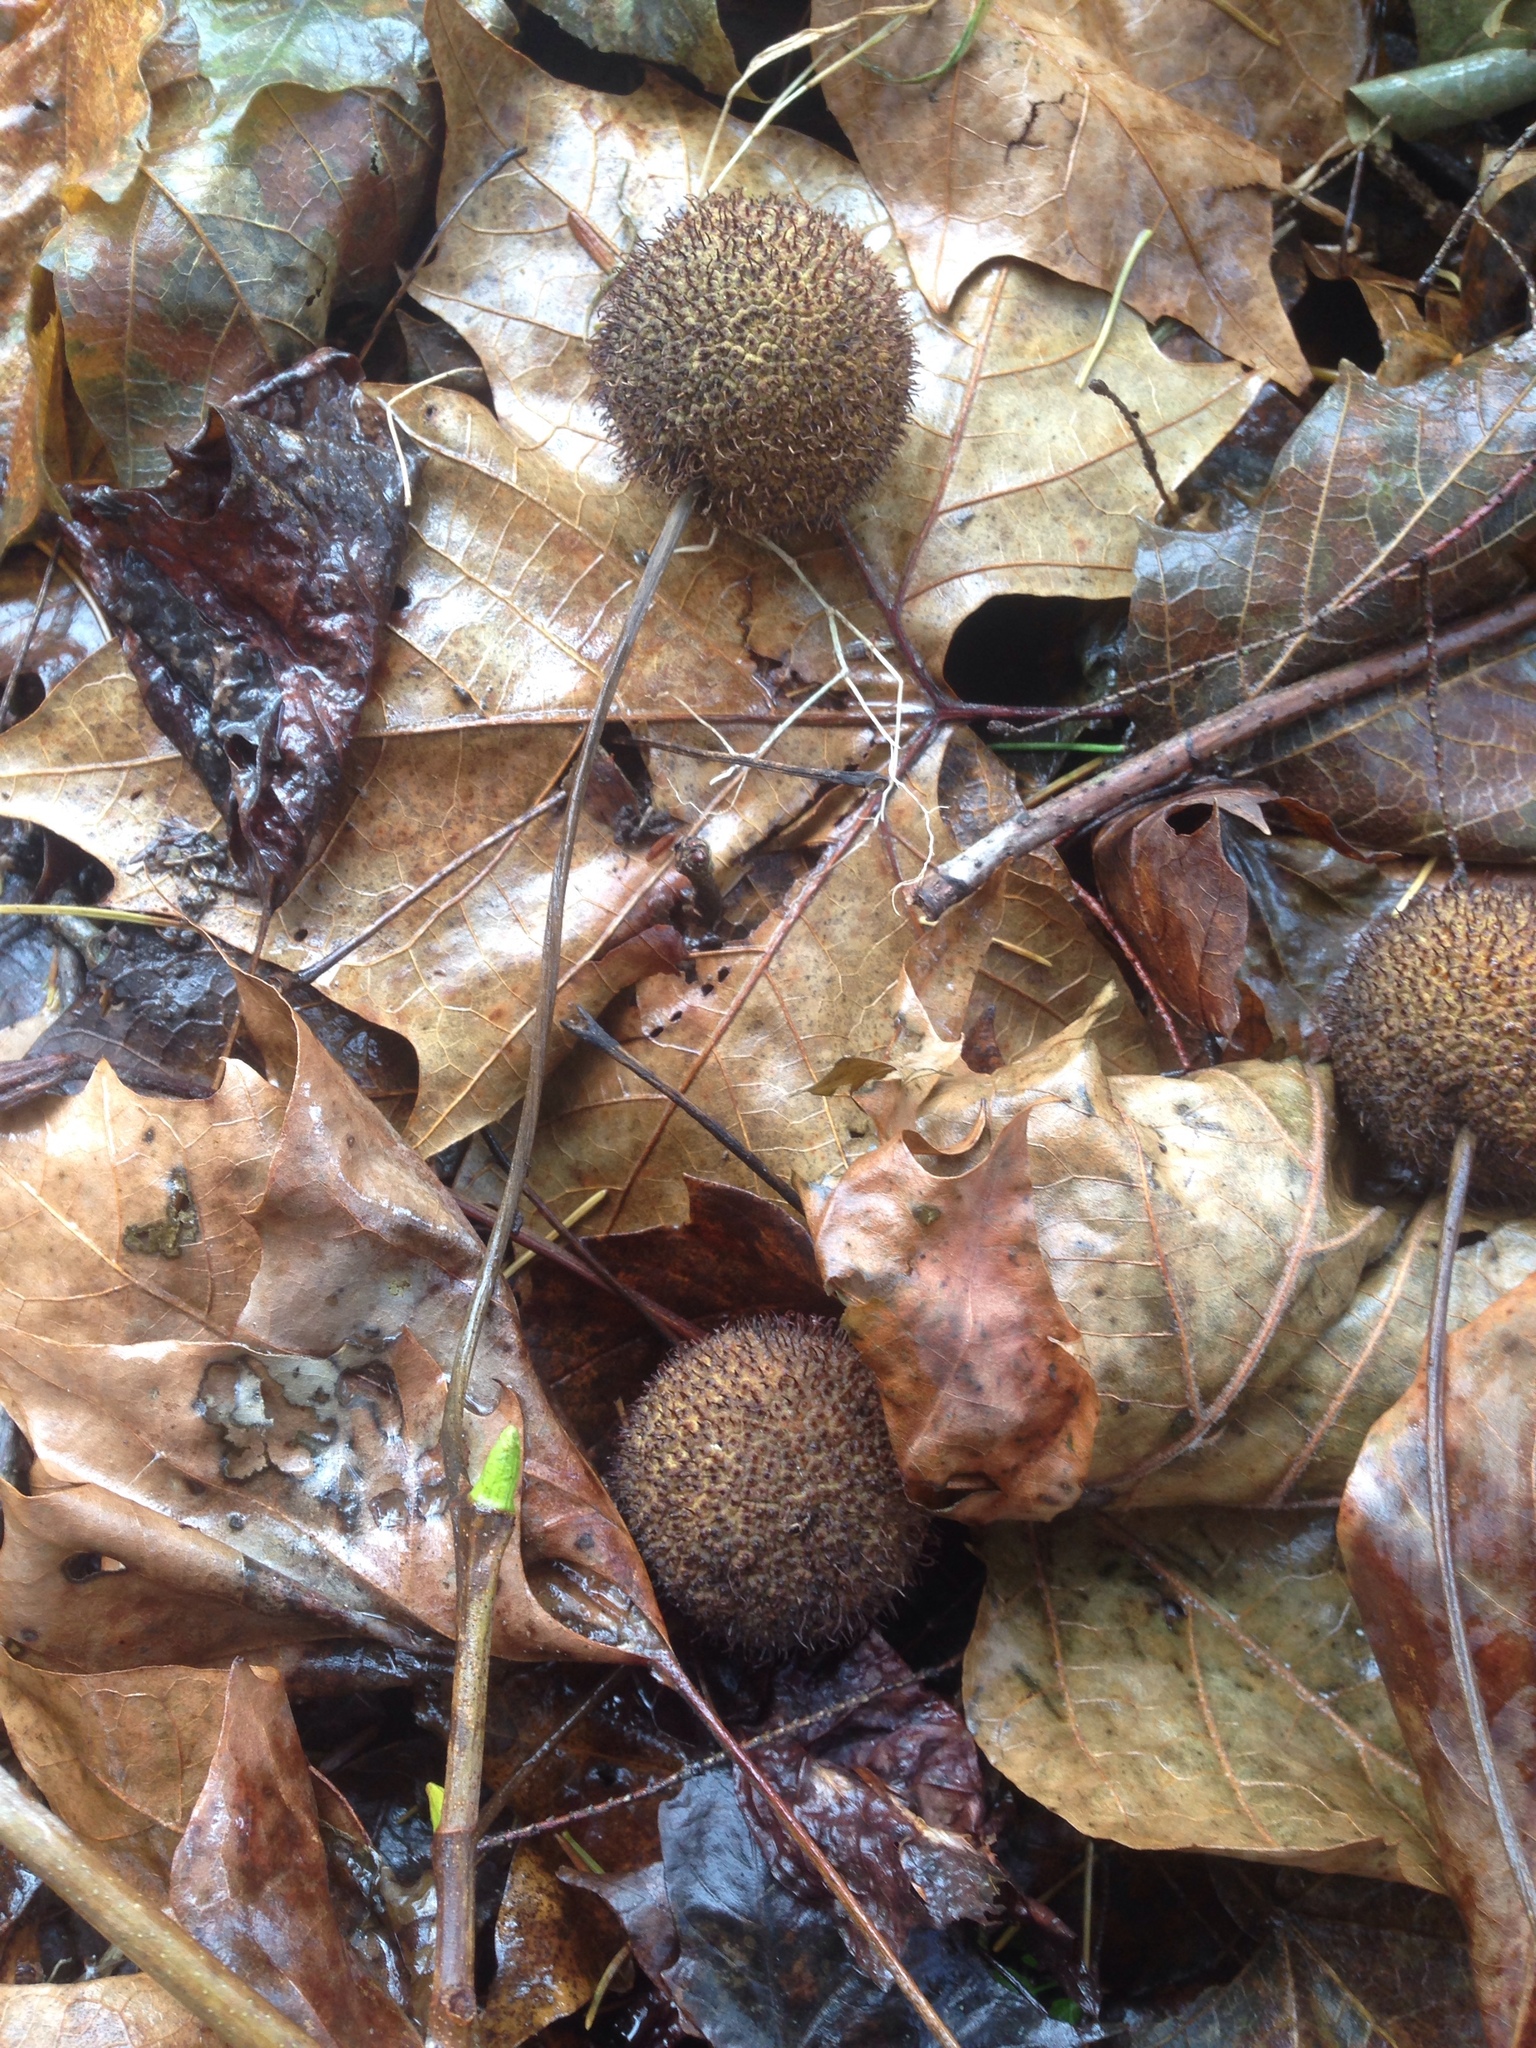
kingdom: Plantae
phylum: Tracheophyta
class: Magnoliopsida
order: Proteales
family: Platanaceae
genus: Platanus
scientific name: Platanus occidentalis
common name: American sycamore
